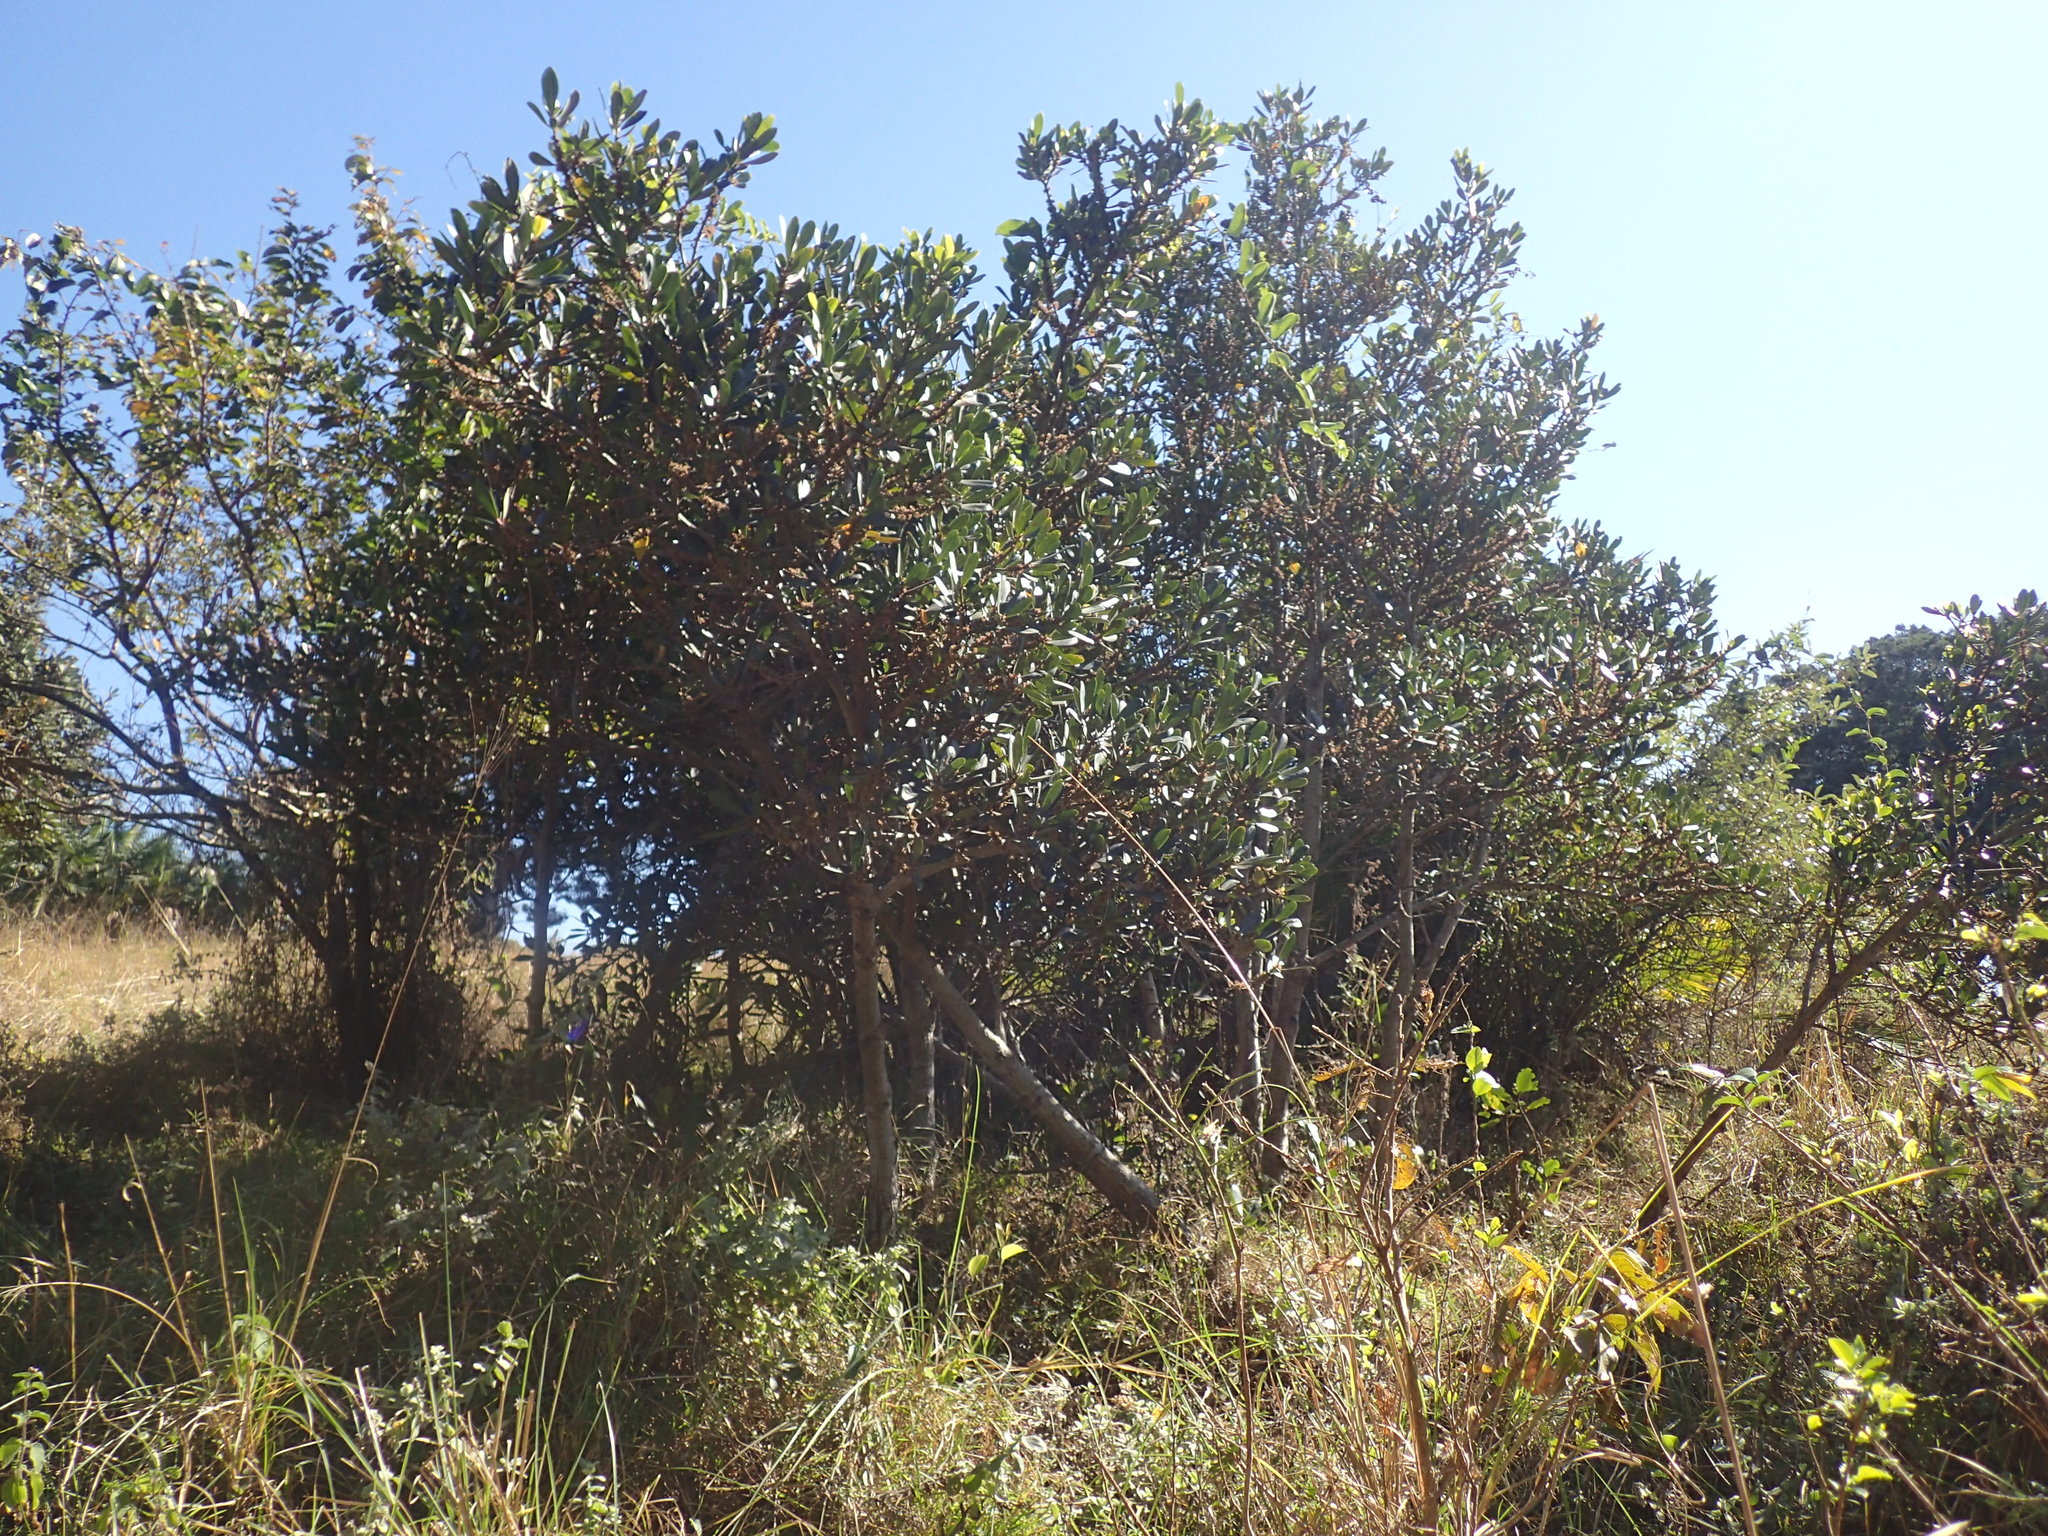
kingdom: Plantae
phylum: Tracheophyta
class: Magnoliopsida
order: Ericales
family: Primulaceae
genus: Myrsine
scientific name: Myrsine melanophloeos
